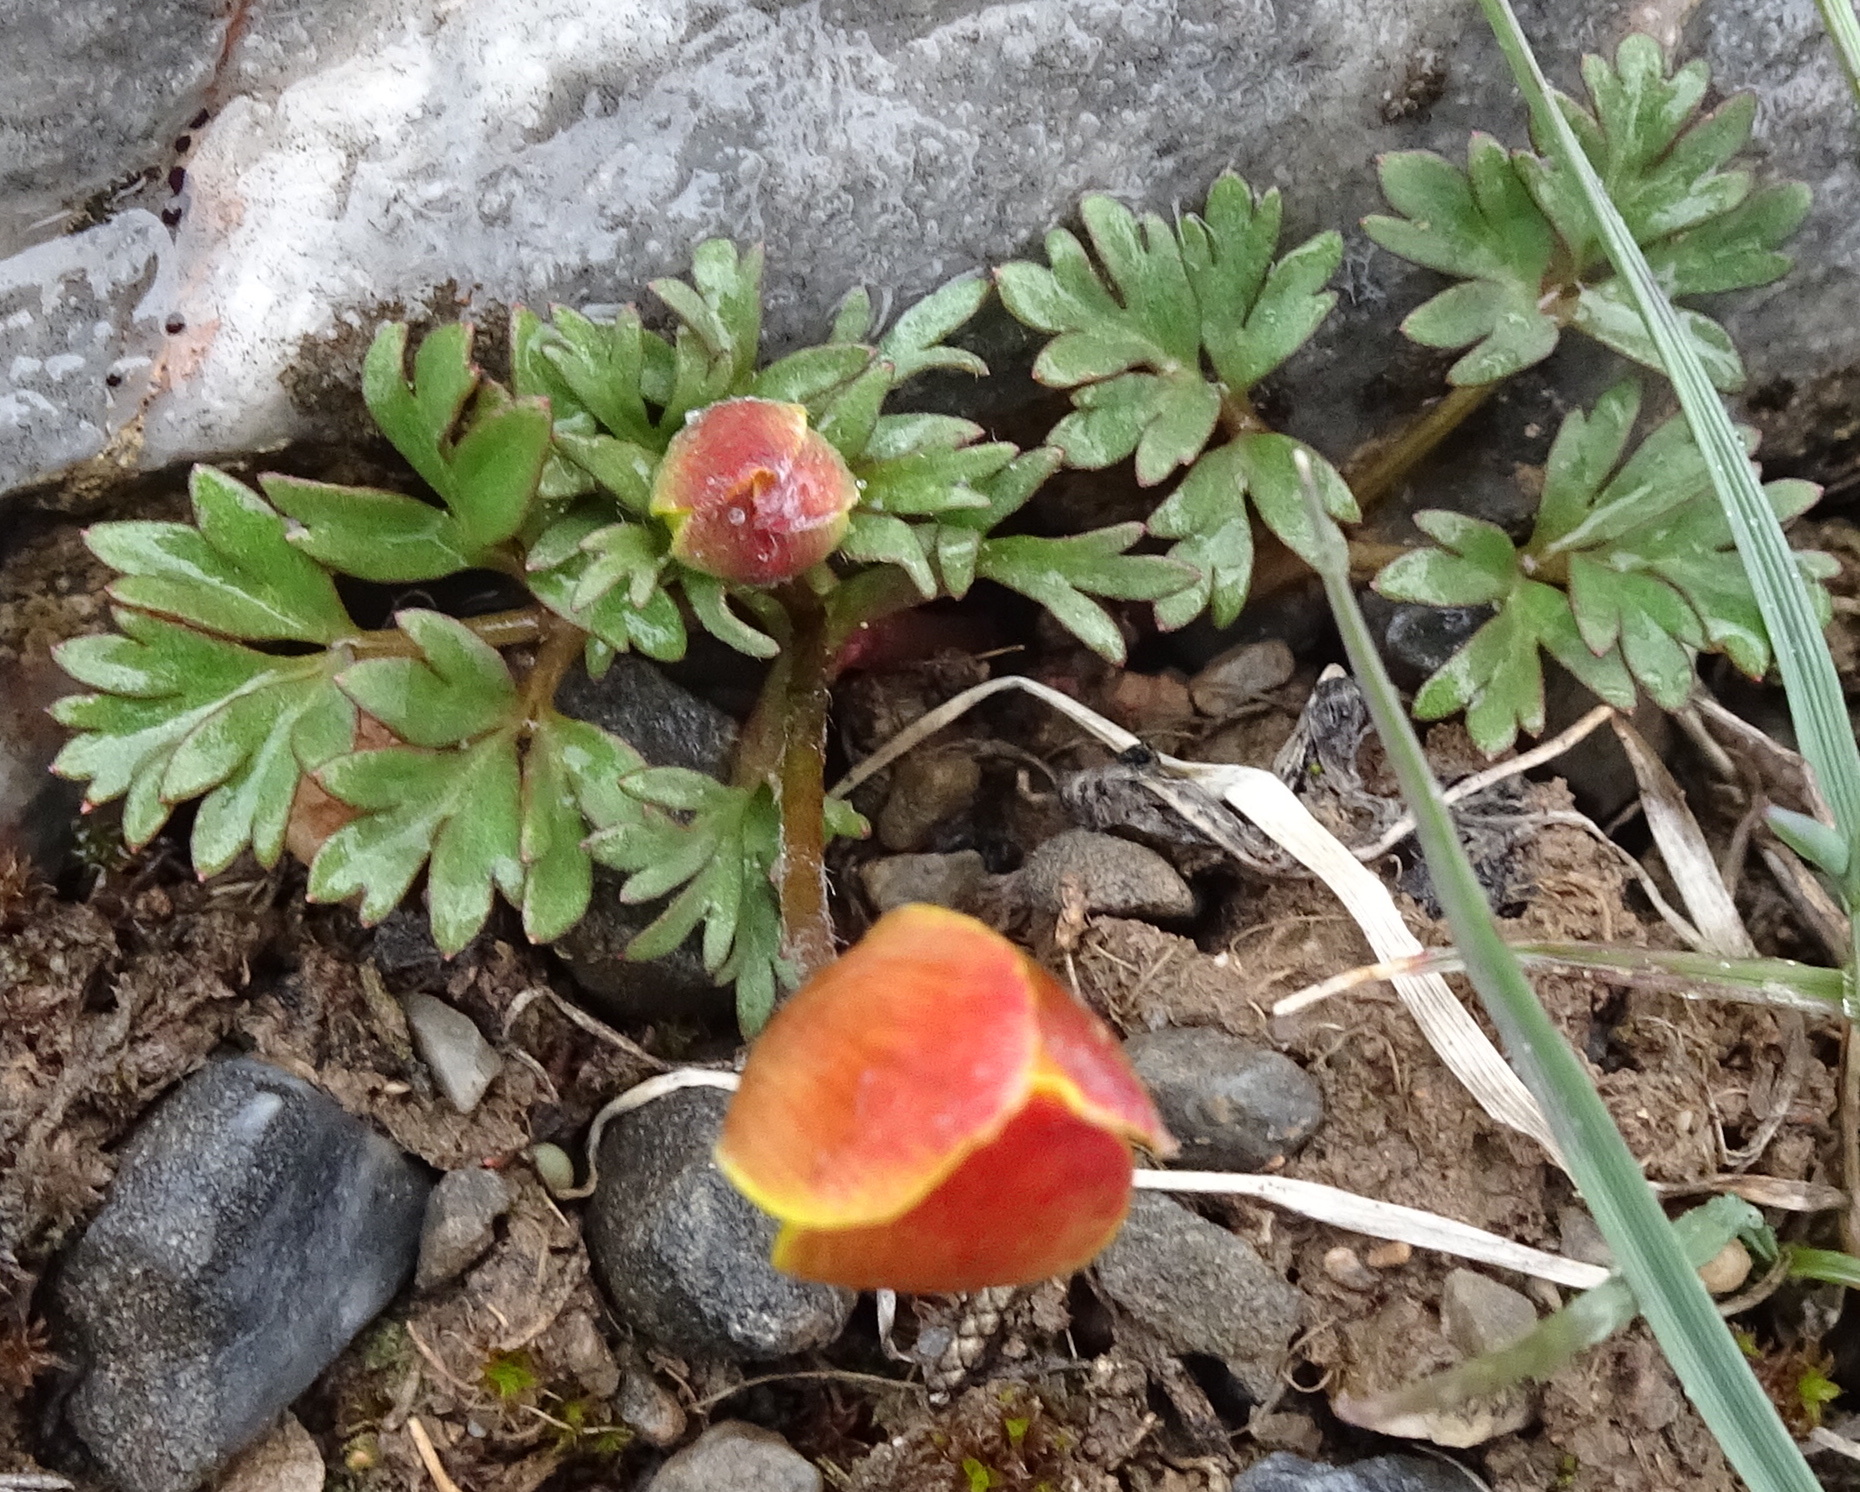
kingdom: Plantae
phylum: Tracheophyta
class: Magnoliopsida
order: Ranunculales
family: Ranunculaceae
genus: Anemone
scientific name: Anemone petiolulosa
